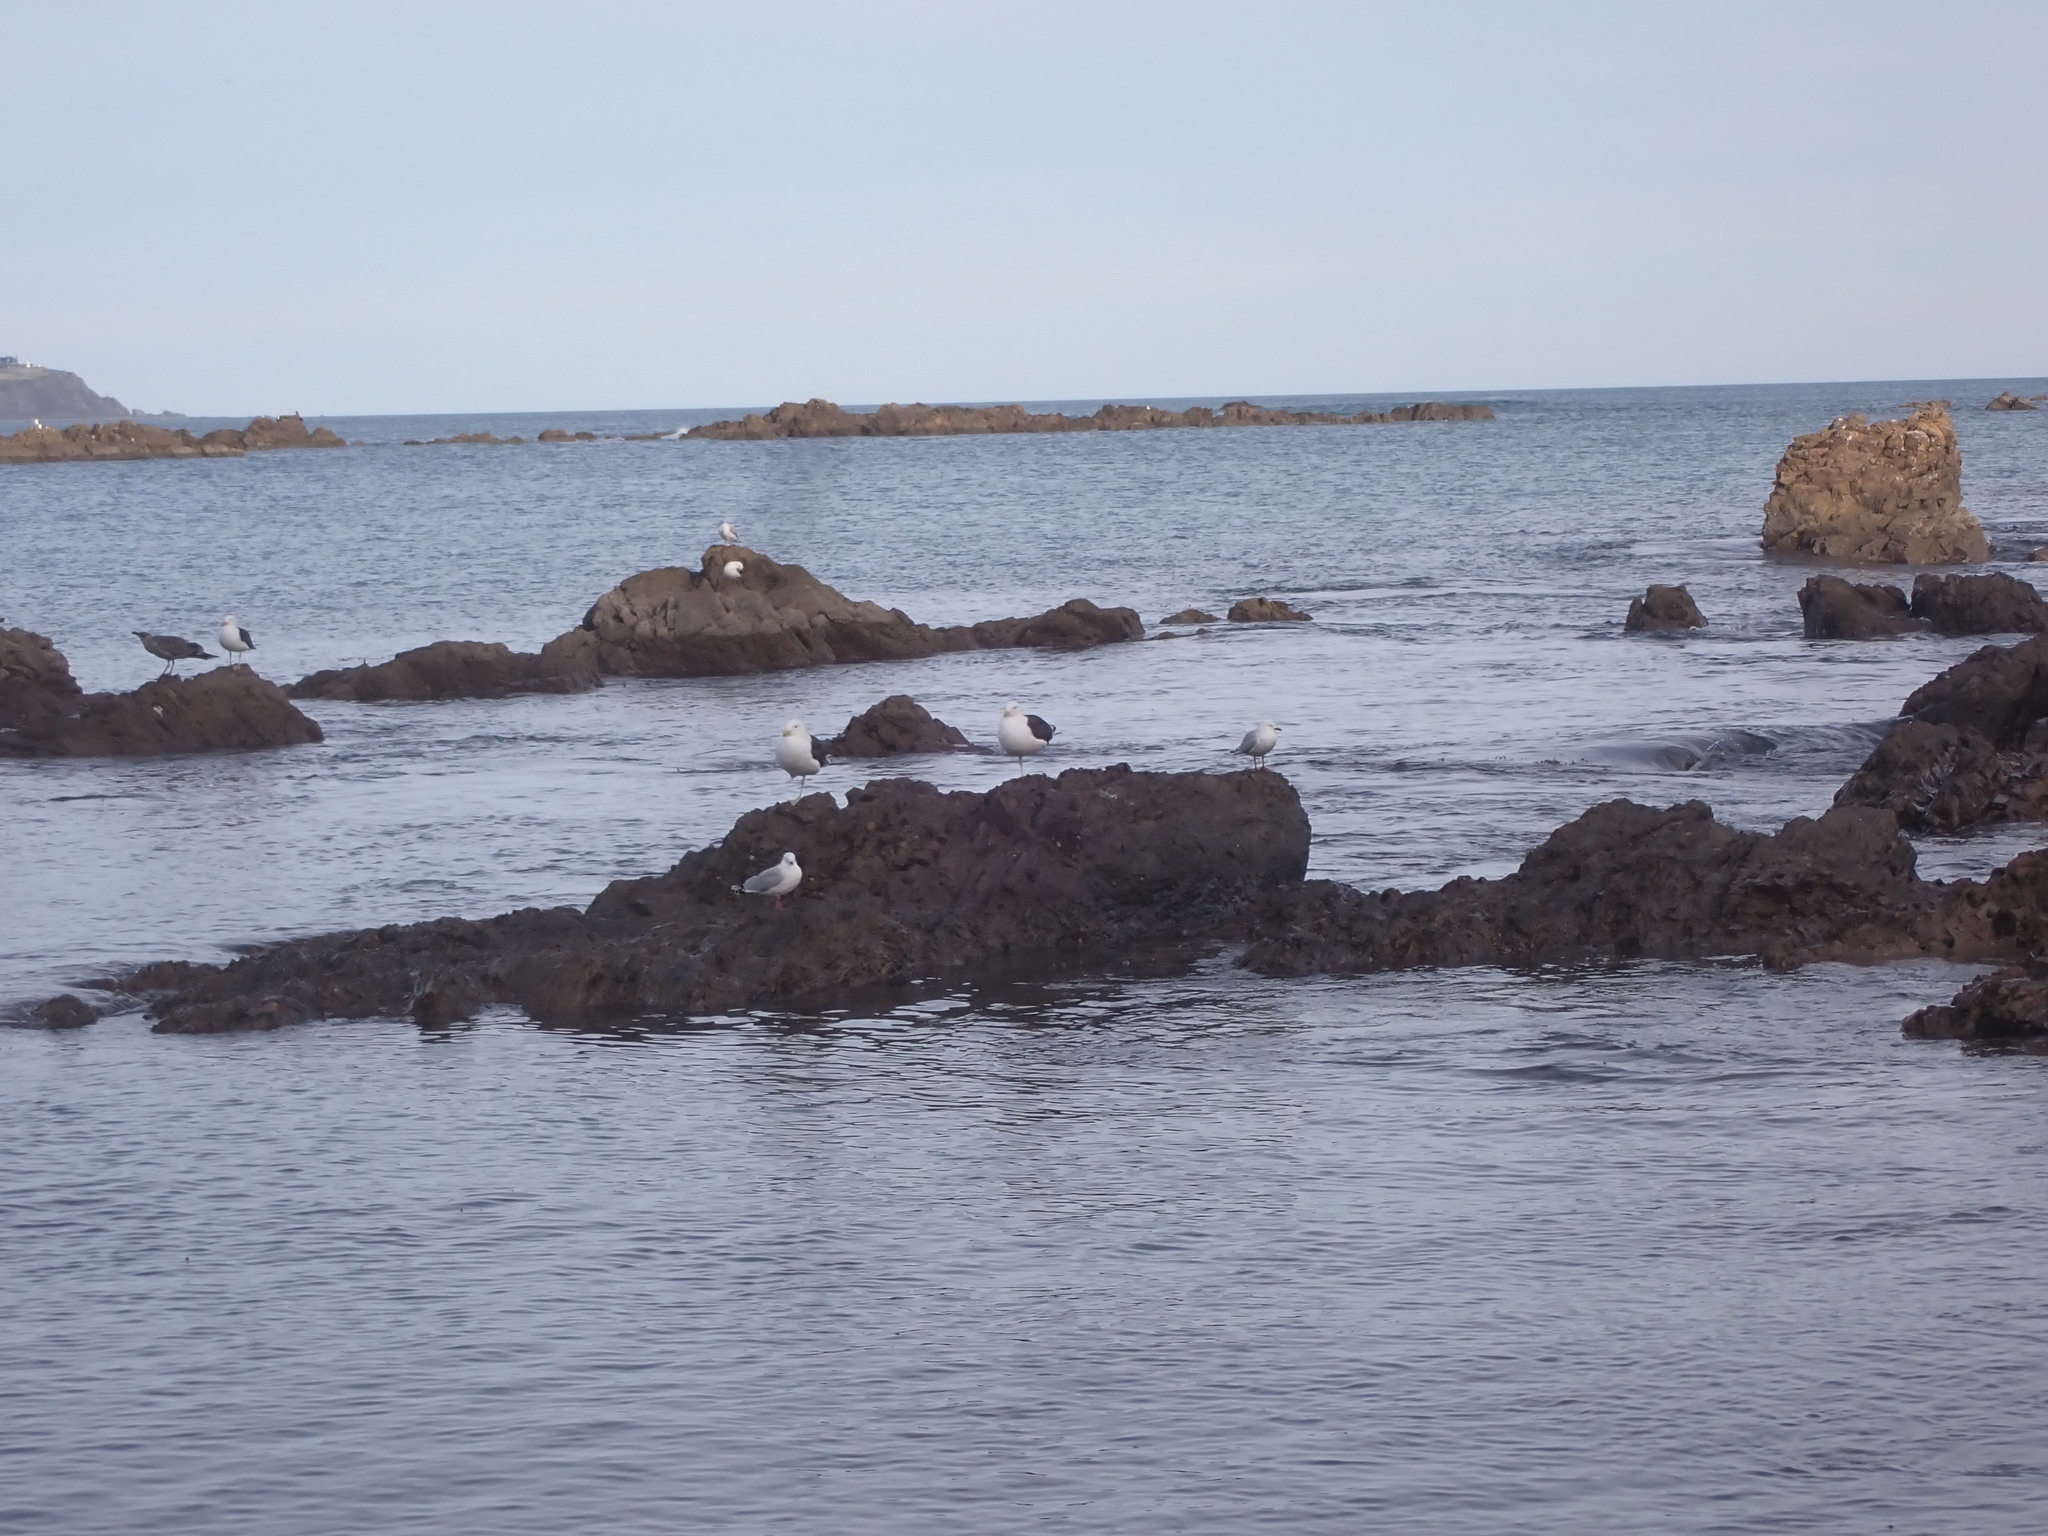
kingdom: Animalia
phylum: Chordata
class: Aves
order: Charadriiformes
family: Laridae
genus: Larus
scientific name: Larus dominicanus
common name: Kelp gull
